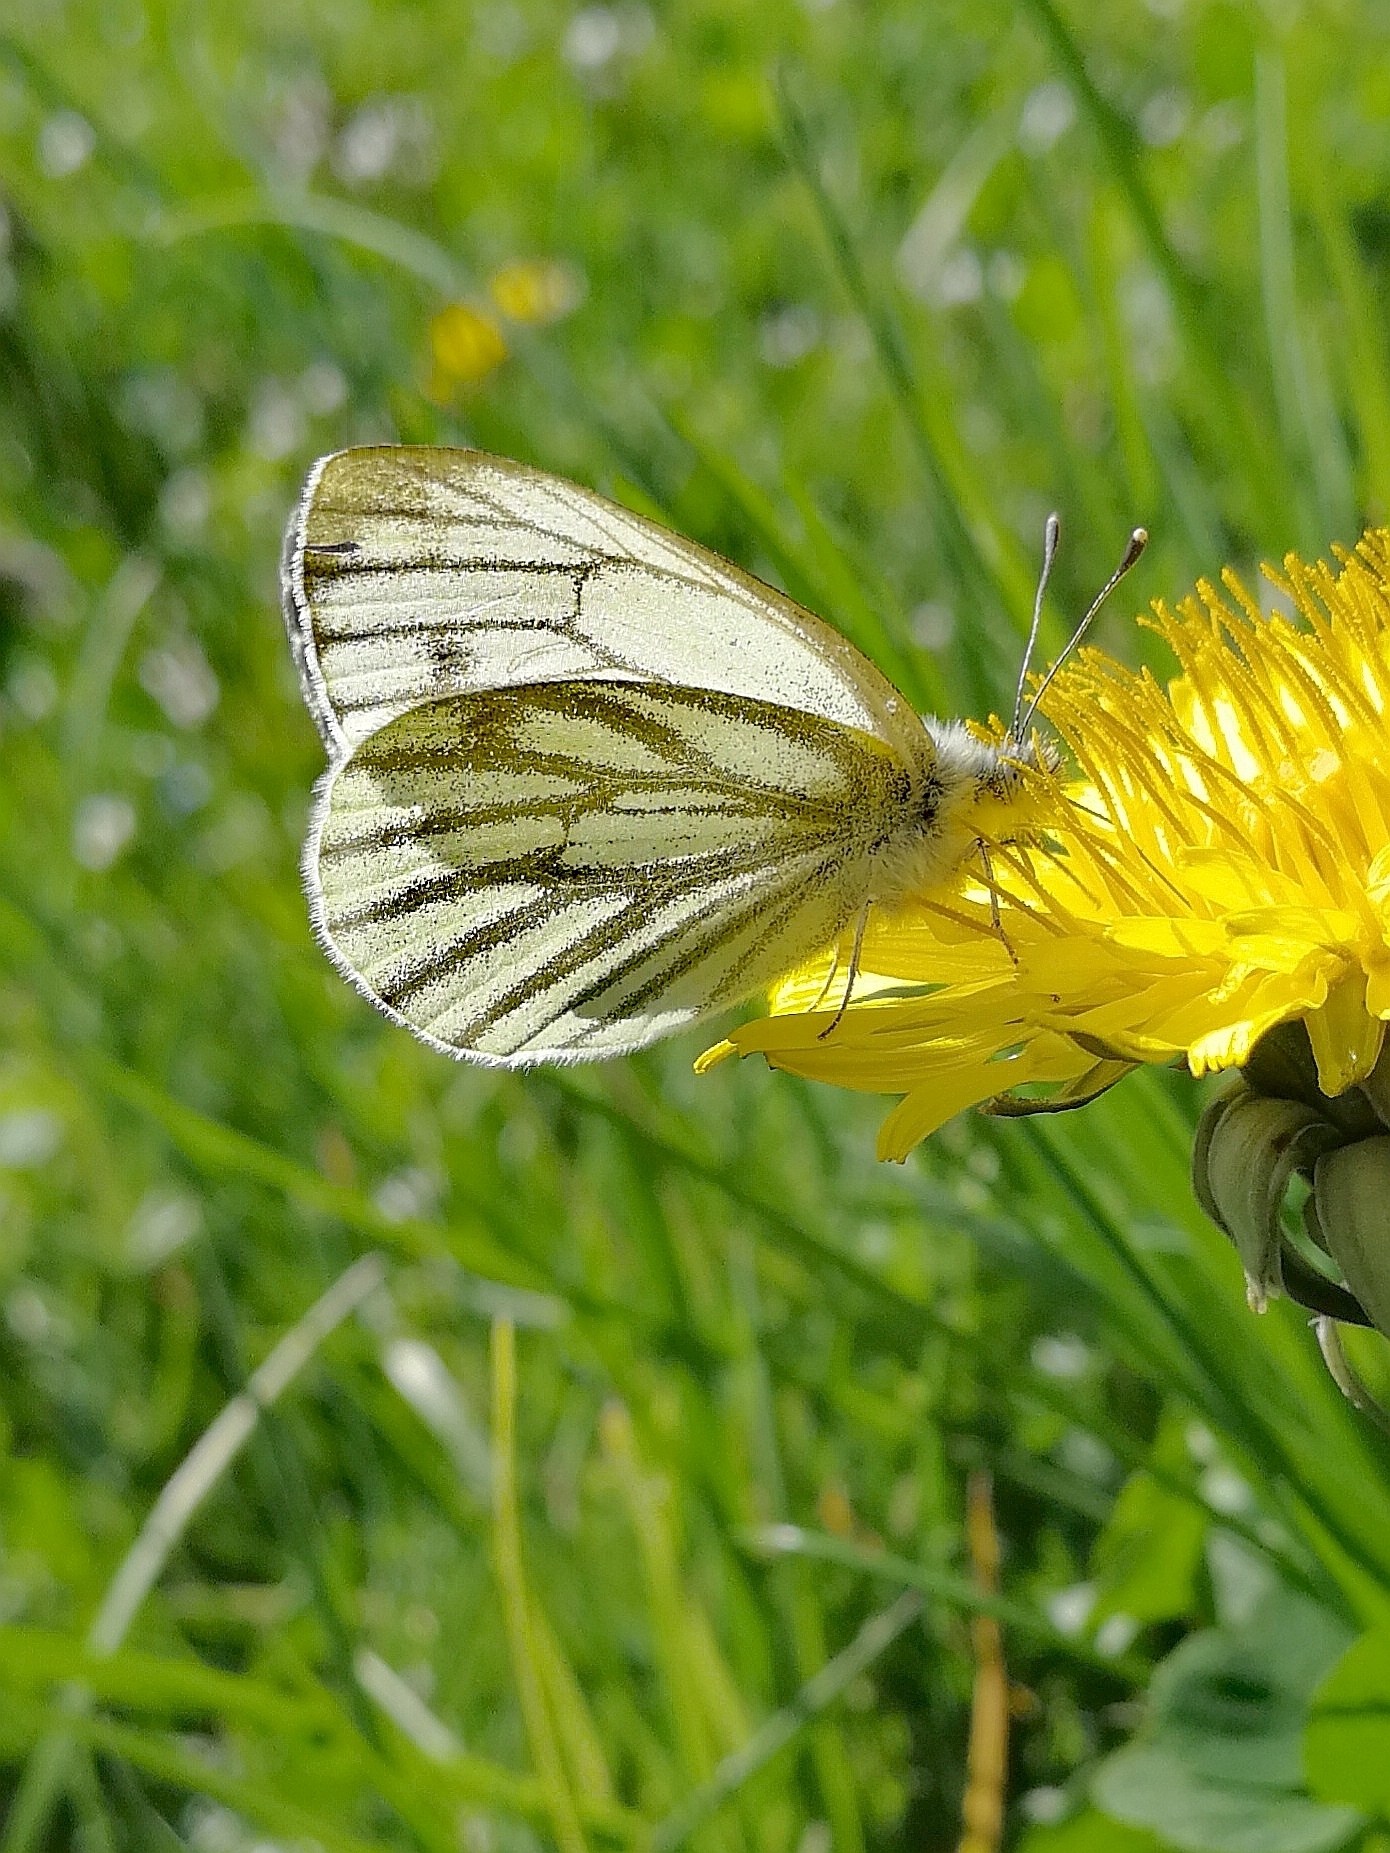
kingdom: Animalia
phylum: Arthropoda
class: Insecta
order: Lepidoptera
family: Pieridae
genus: Pieris
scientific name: Pieris napi
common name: Green-veined white
